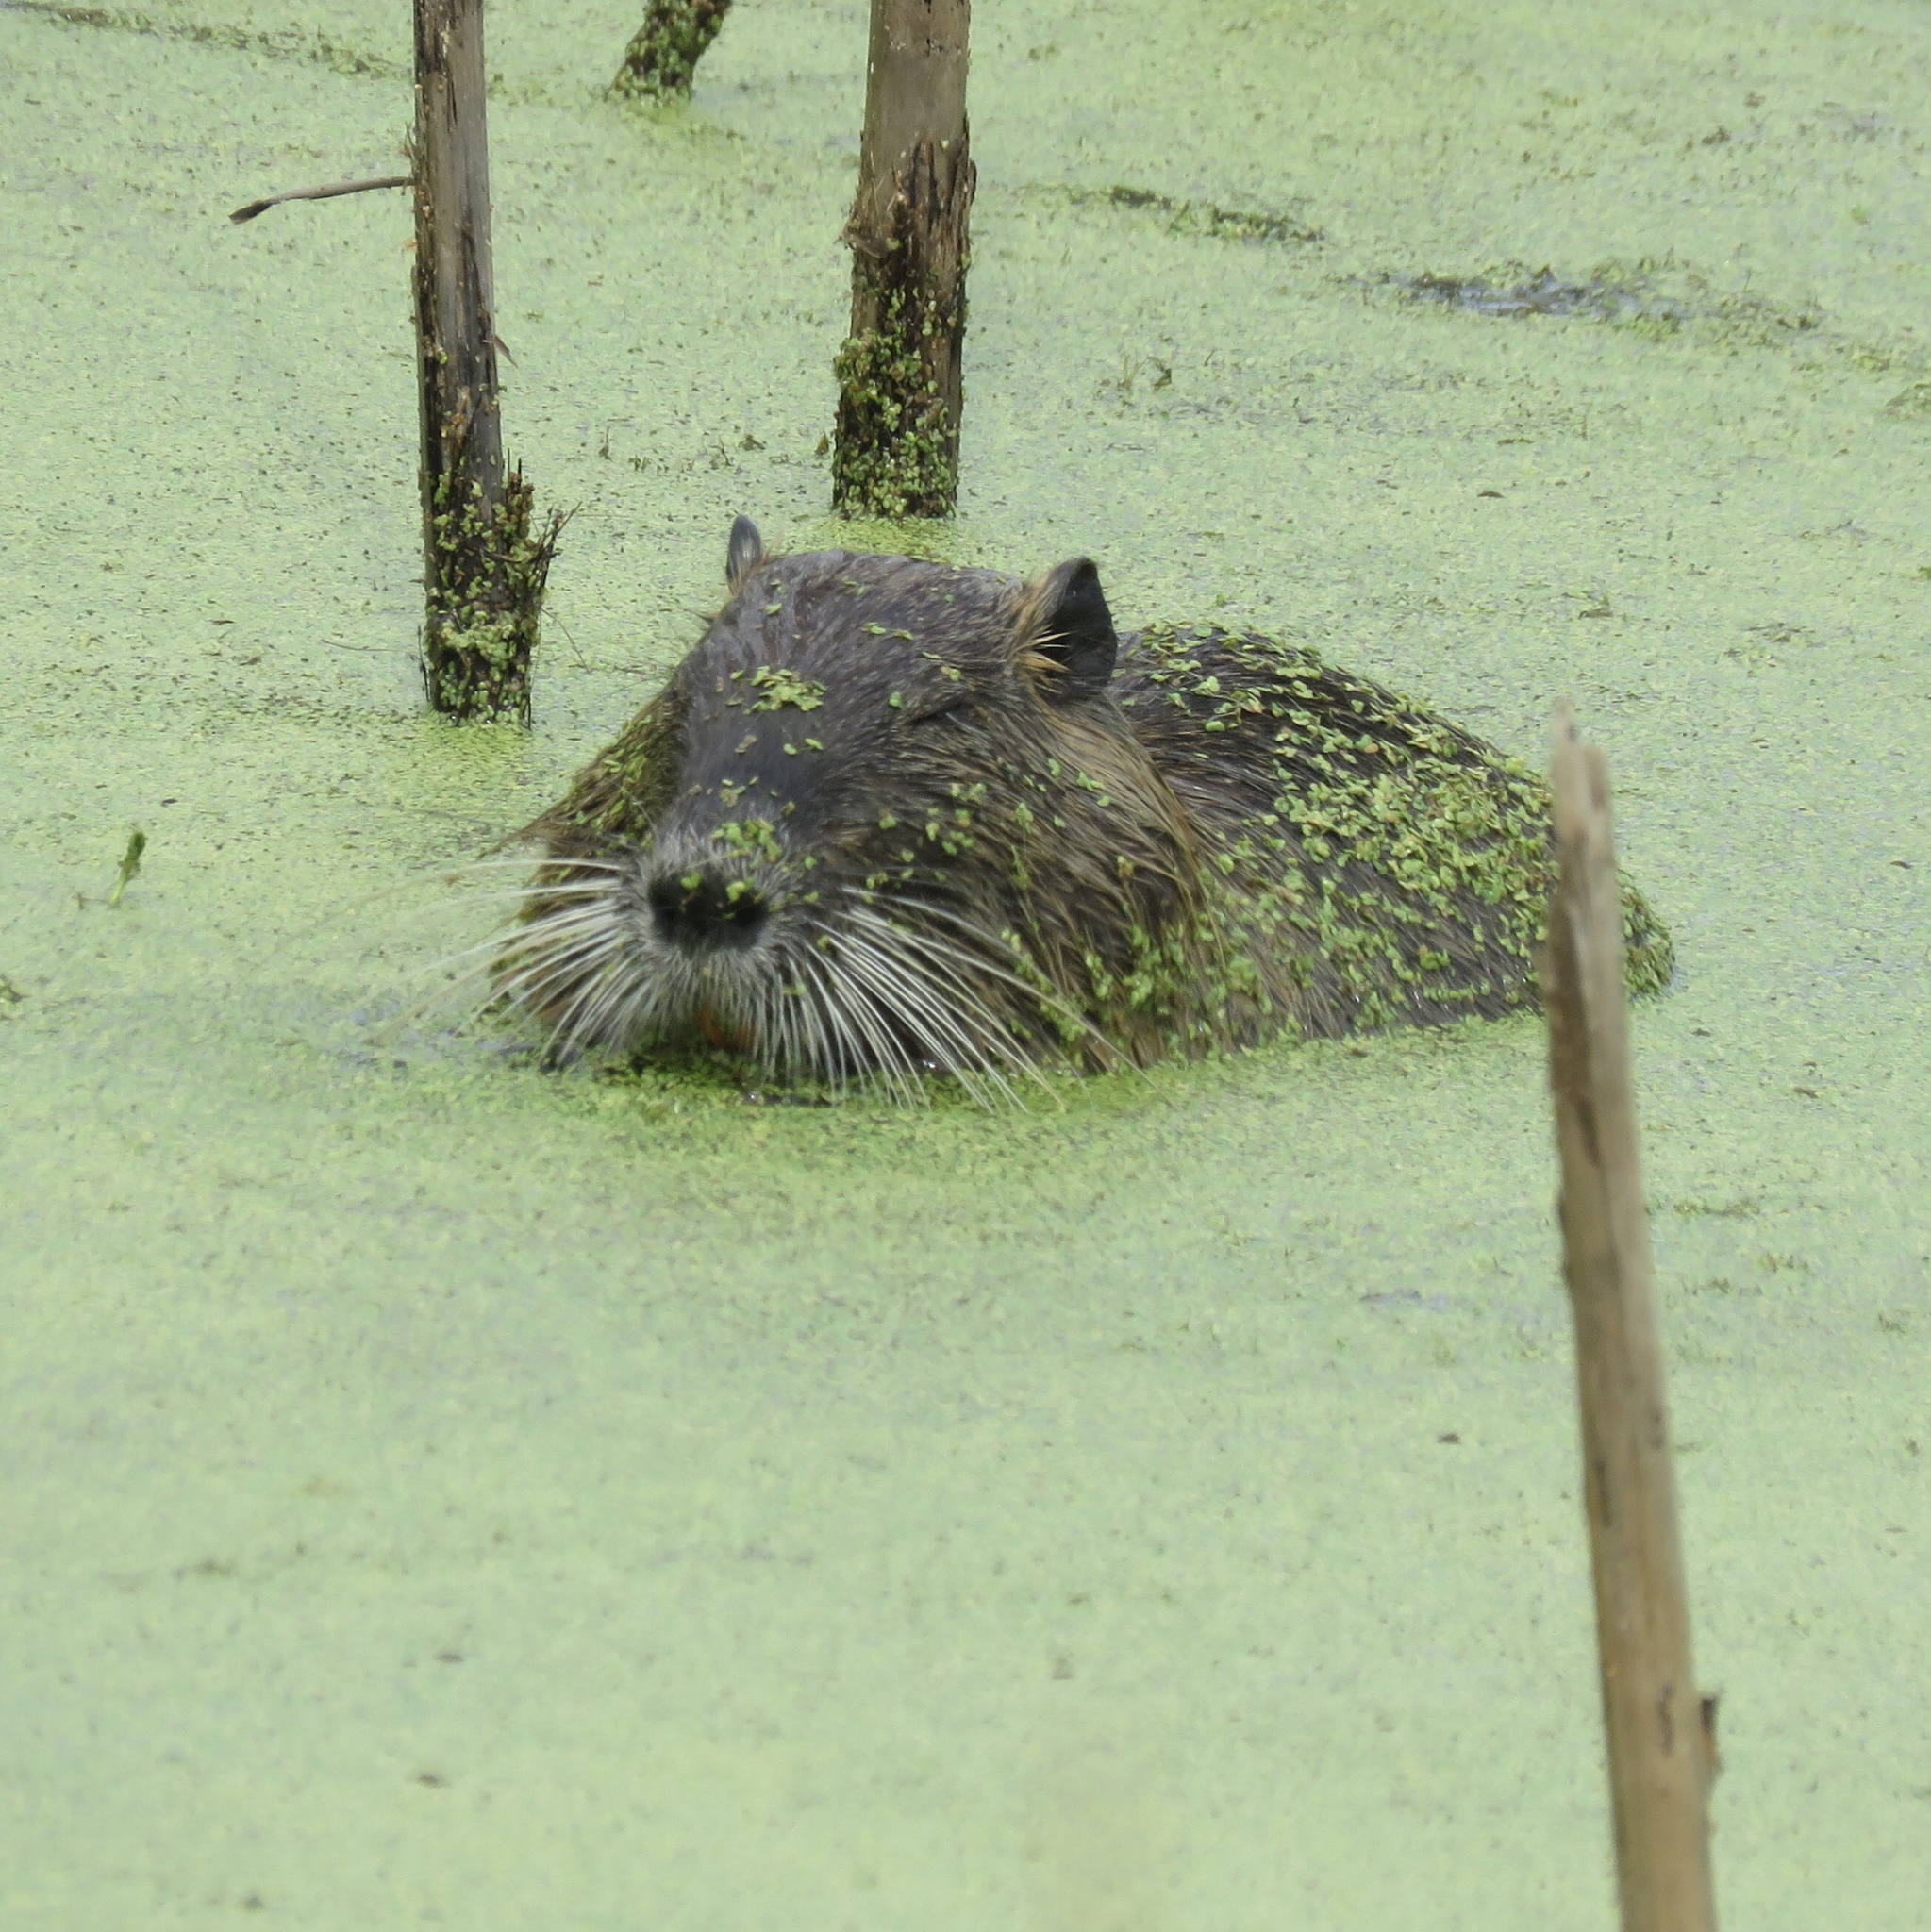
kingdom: Animalia
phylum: Chordata
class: Mammalia
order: Rodentia
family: Myocastoridae
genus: Myocastor
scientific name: Myocastor coypus
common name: Coypu
